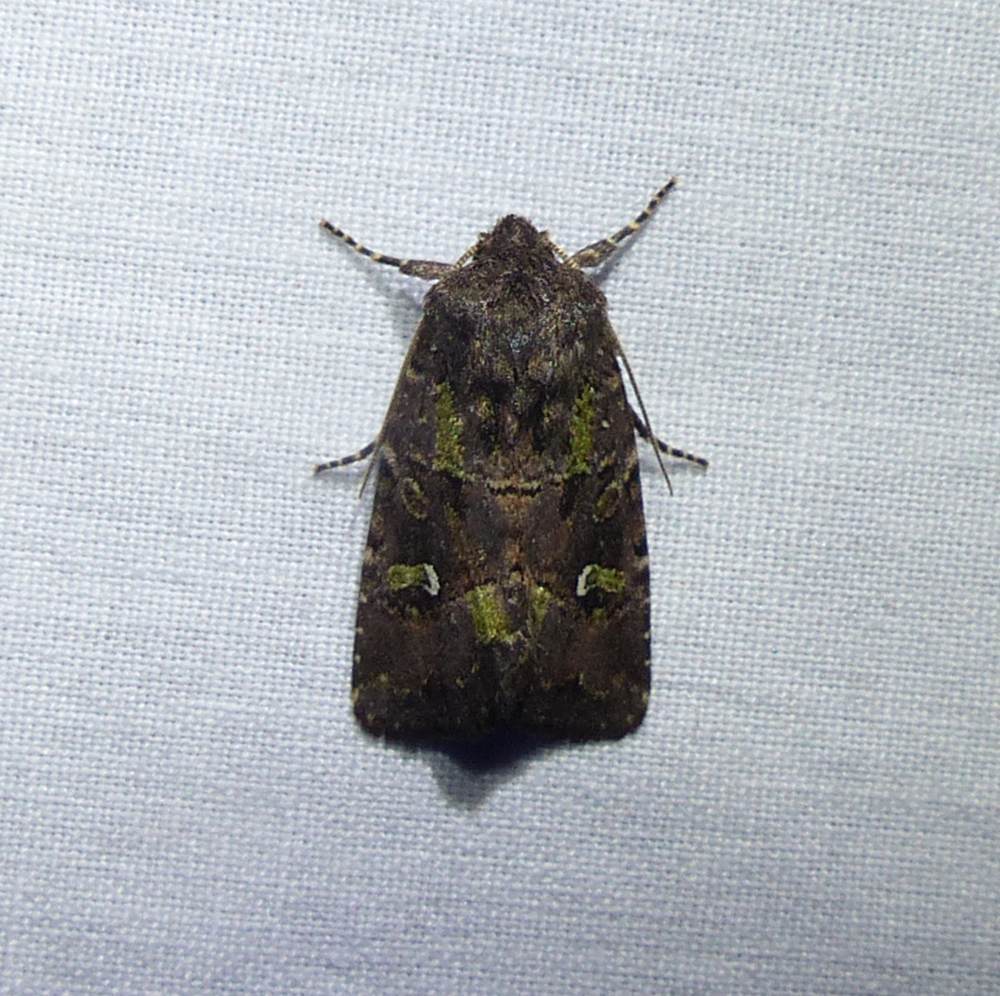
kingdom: Animalia
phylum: Arthropoda
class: Insecta
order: Lepidoptera
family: Noctuidae
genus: Lacinipolia
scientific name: Lacinipolia renigera
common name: Kidney-spotted minor
